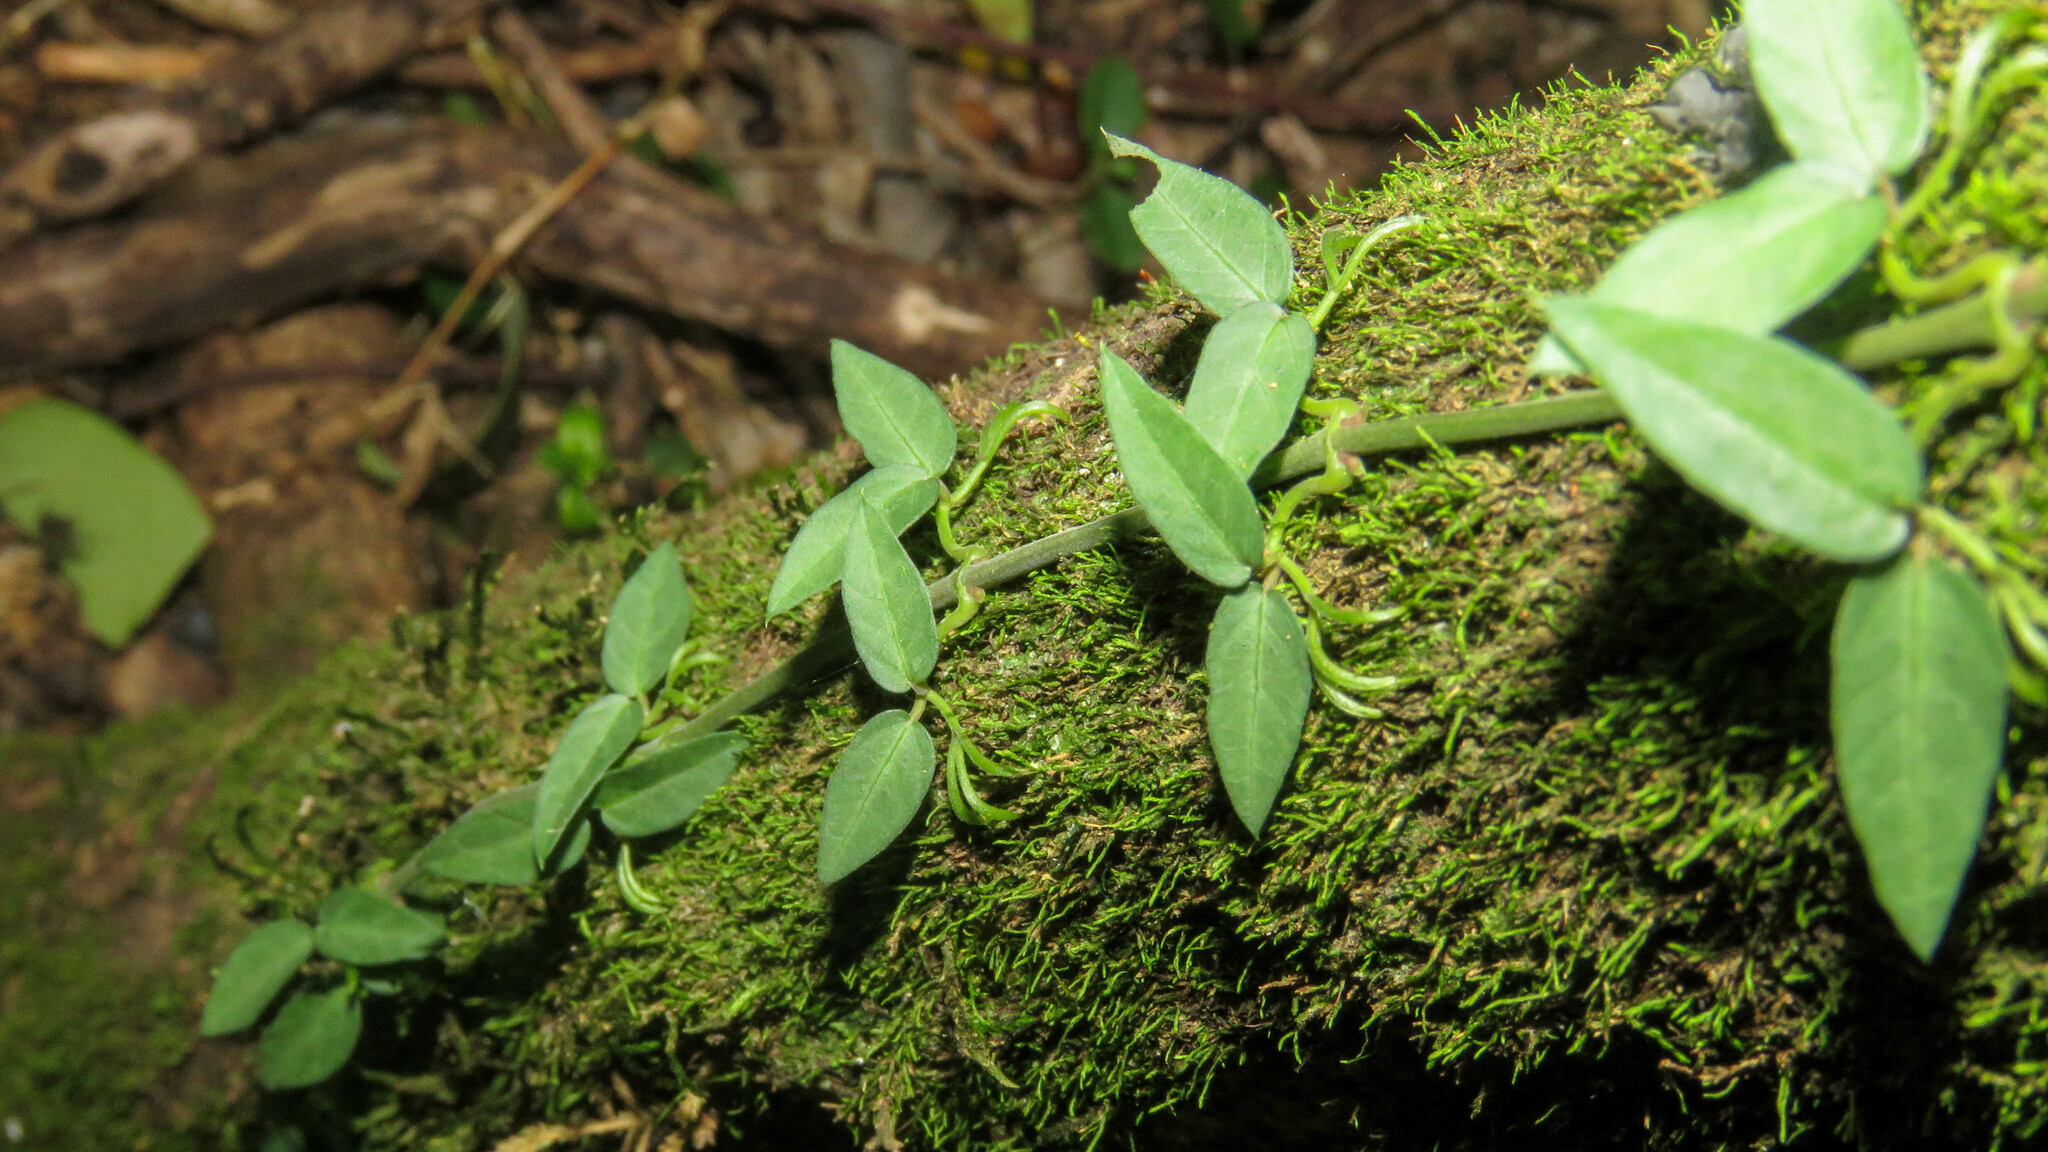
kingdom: Plantae
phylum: Tracheophyta
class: Magnoliopsida
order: Lamiales
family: Bignoniaceae
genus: Dolichandra
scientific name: Dolichandra unguis-cati
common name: Catclaw vine
